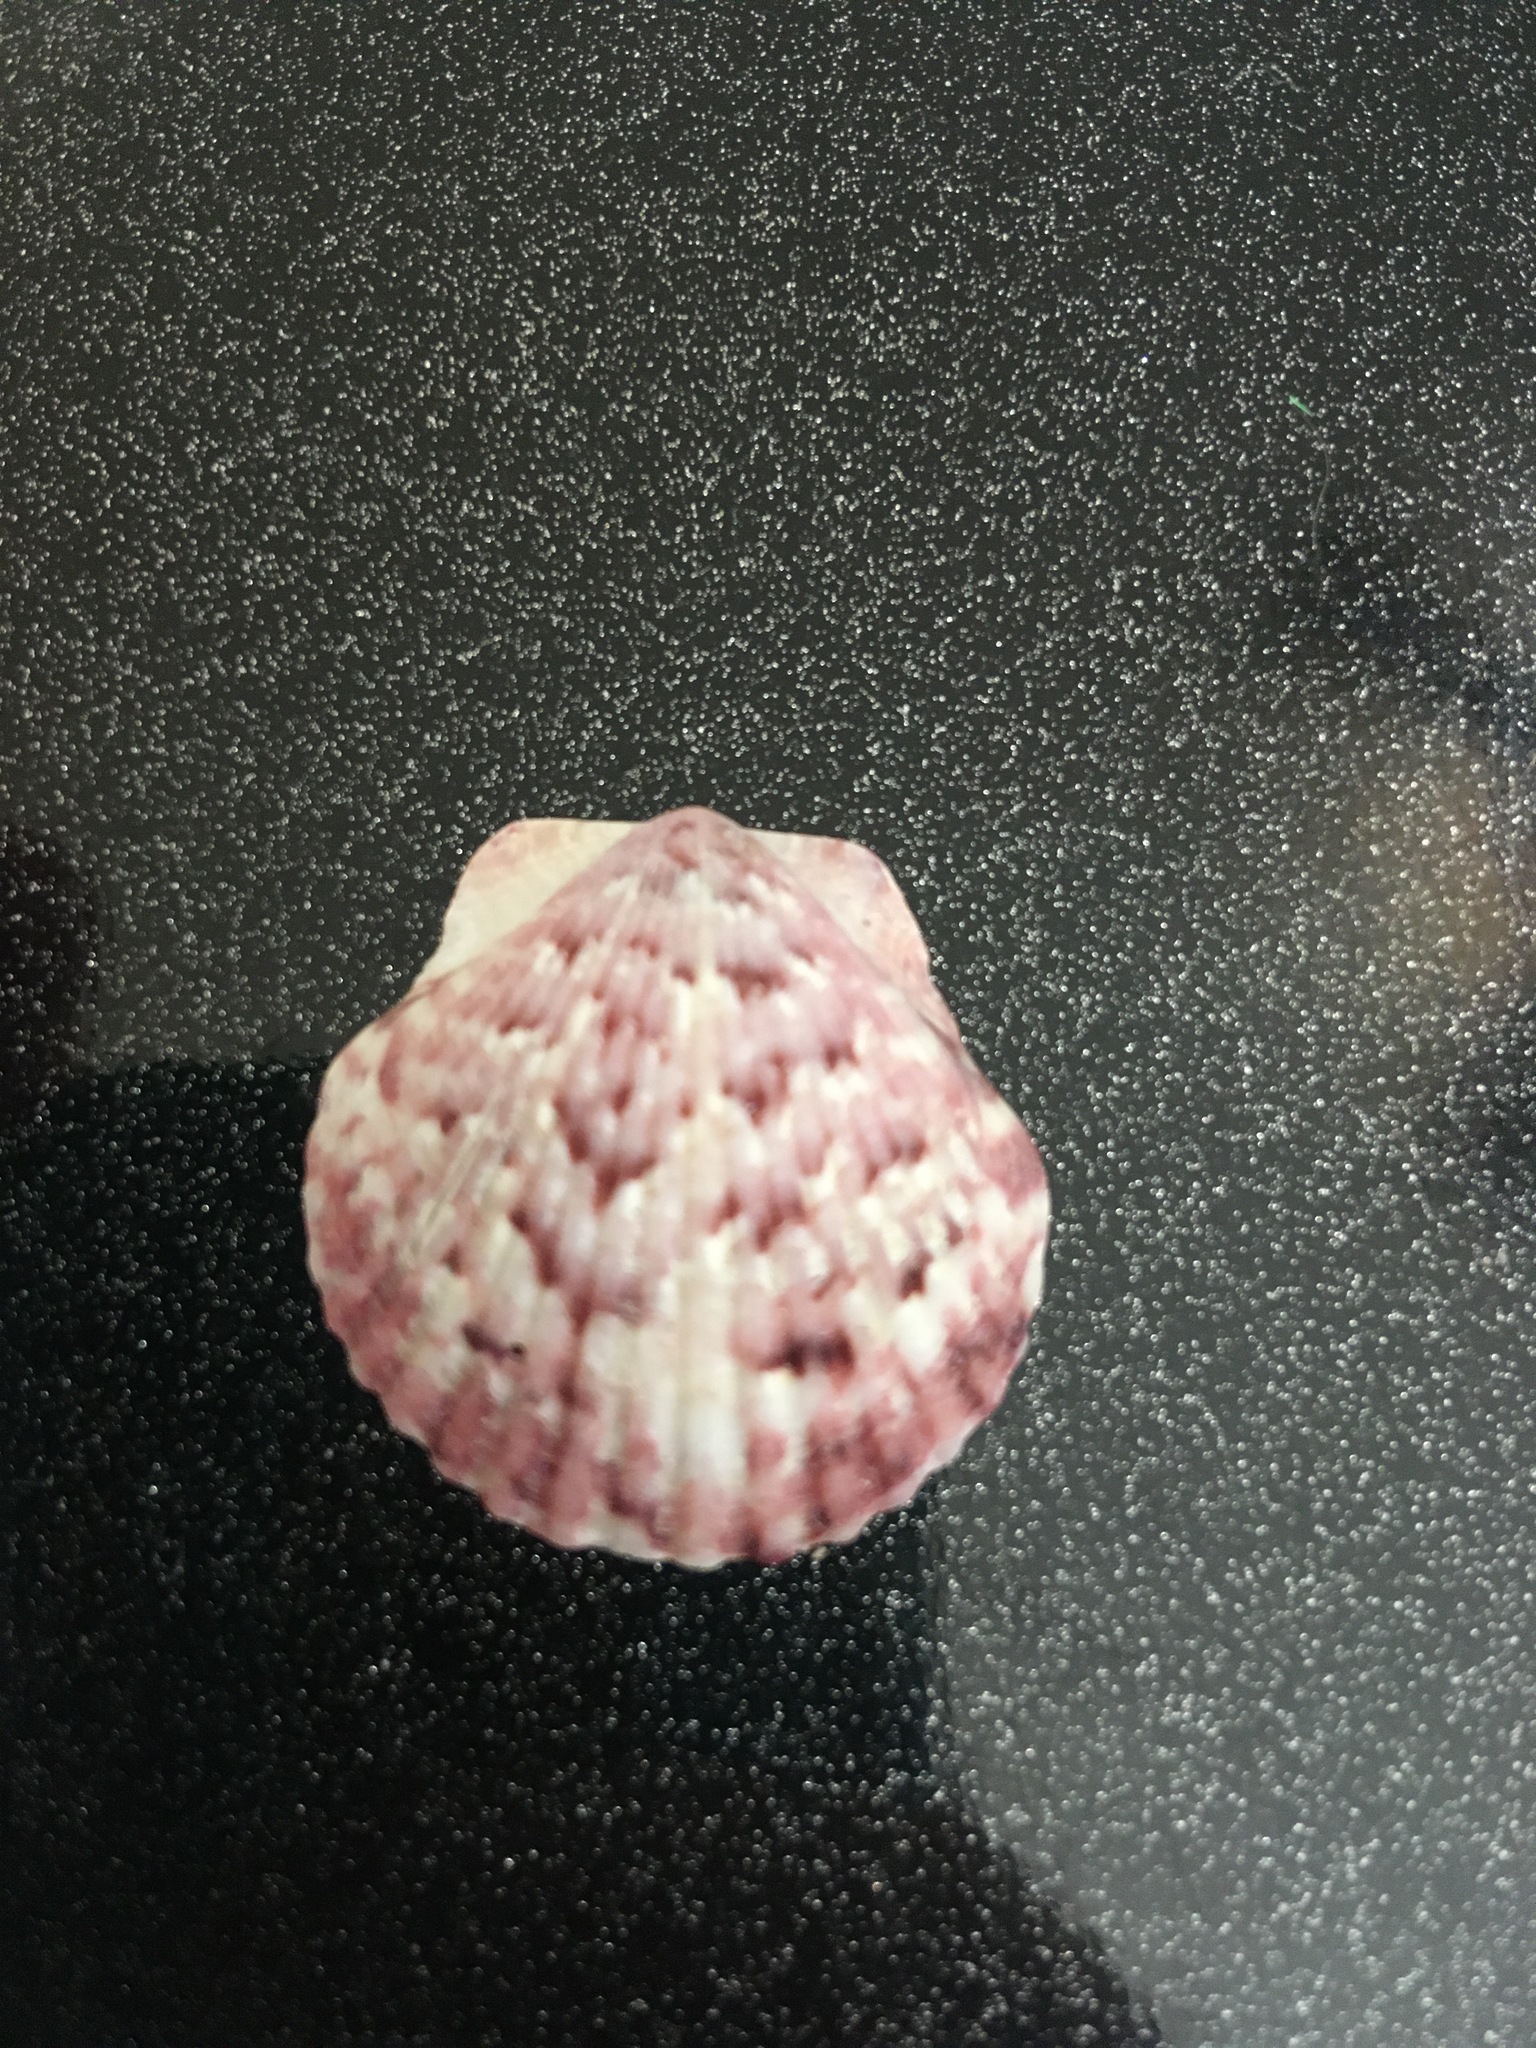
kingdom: Animalia
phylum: Mollusca
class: Bivalvia
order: Pectinida
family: Pectinidae
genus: Argopecten
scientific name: Argopecten gibbus
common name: Atlantic calico scallop
